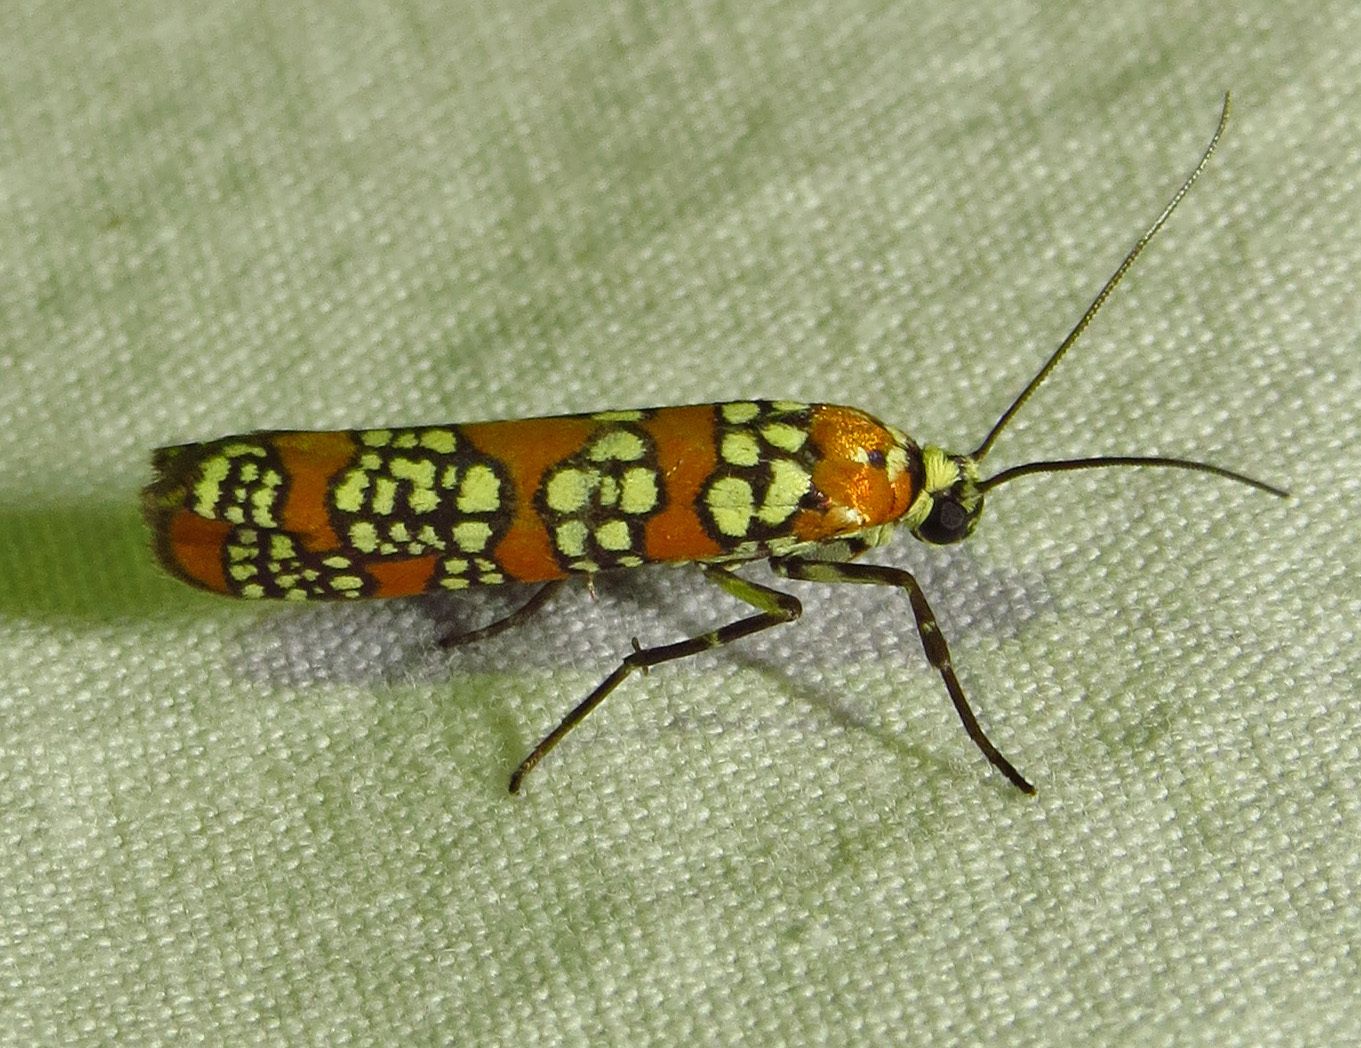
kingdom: Animalia
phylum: Arthropoda
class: Insecta
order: Lepidoptera
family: Attevidae
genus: Atteva
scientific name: Atteva punctella
